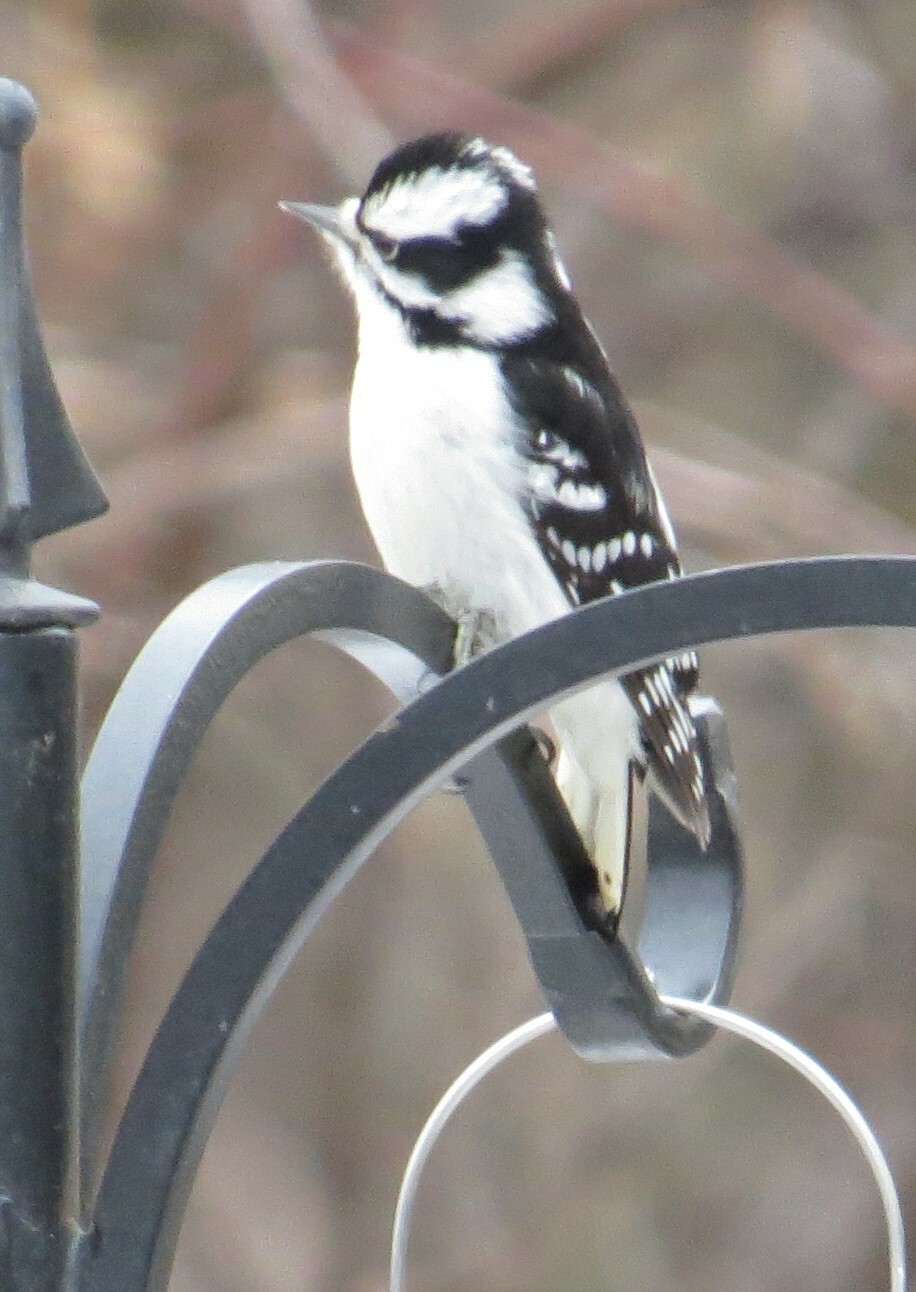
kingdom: Animalia
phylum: Chordata
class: Aves
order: Piciformes
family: Picidae
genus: Dryobates
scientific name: Dryobates pubescens
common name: Downy woodpecker
